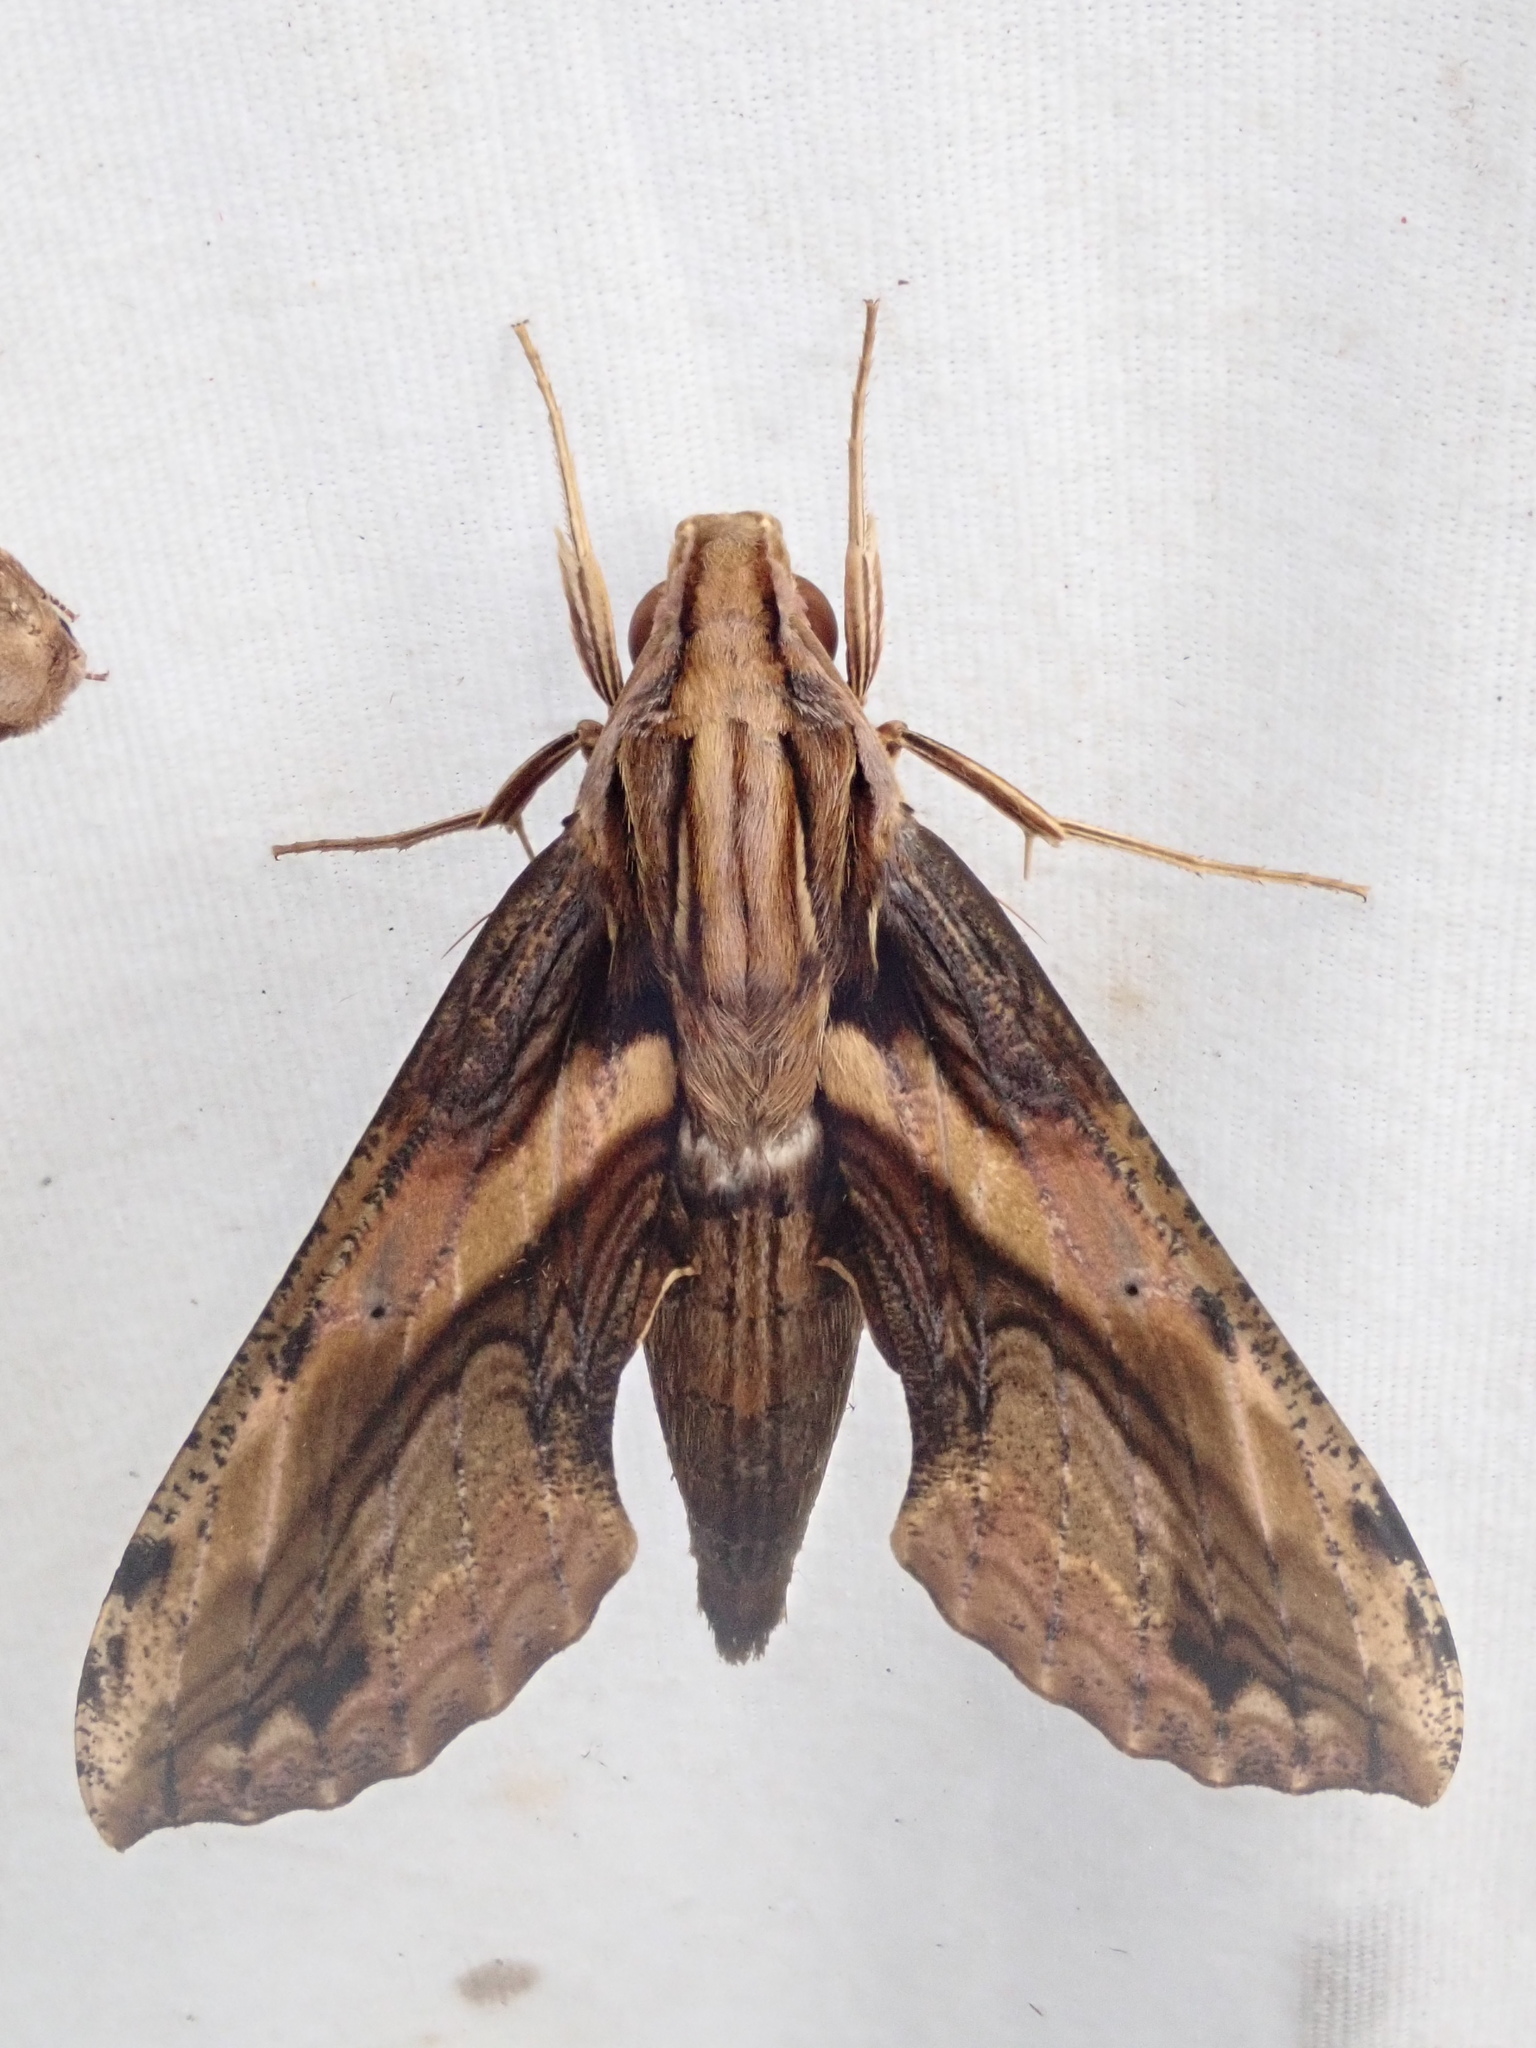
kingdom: Animalia
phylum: Arthropoda
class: Insecta
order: Lepidoptera
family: Sphingidae
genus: Xylophanes
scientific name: Xylophanes ceratomioides
